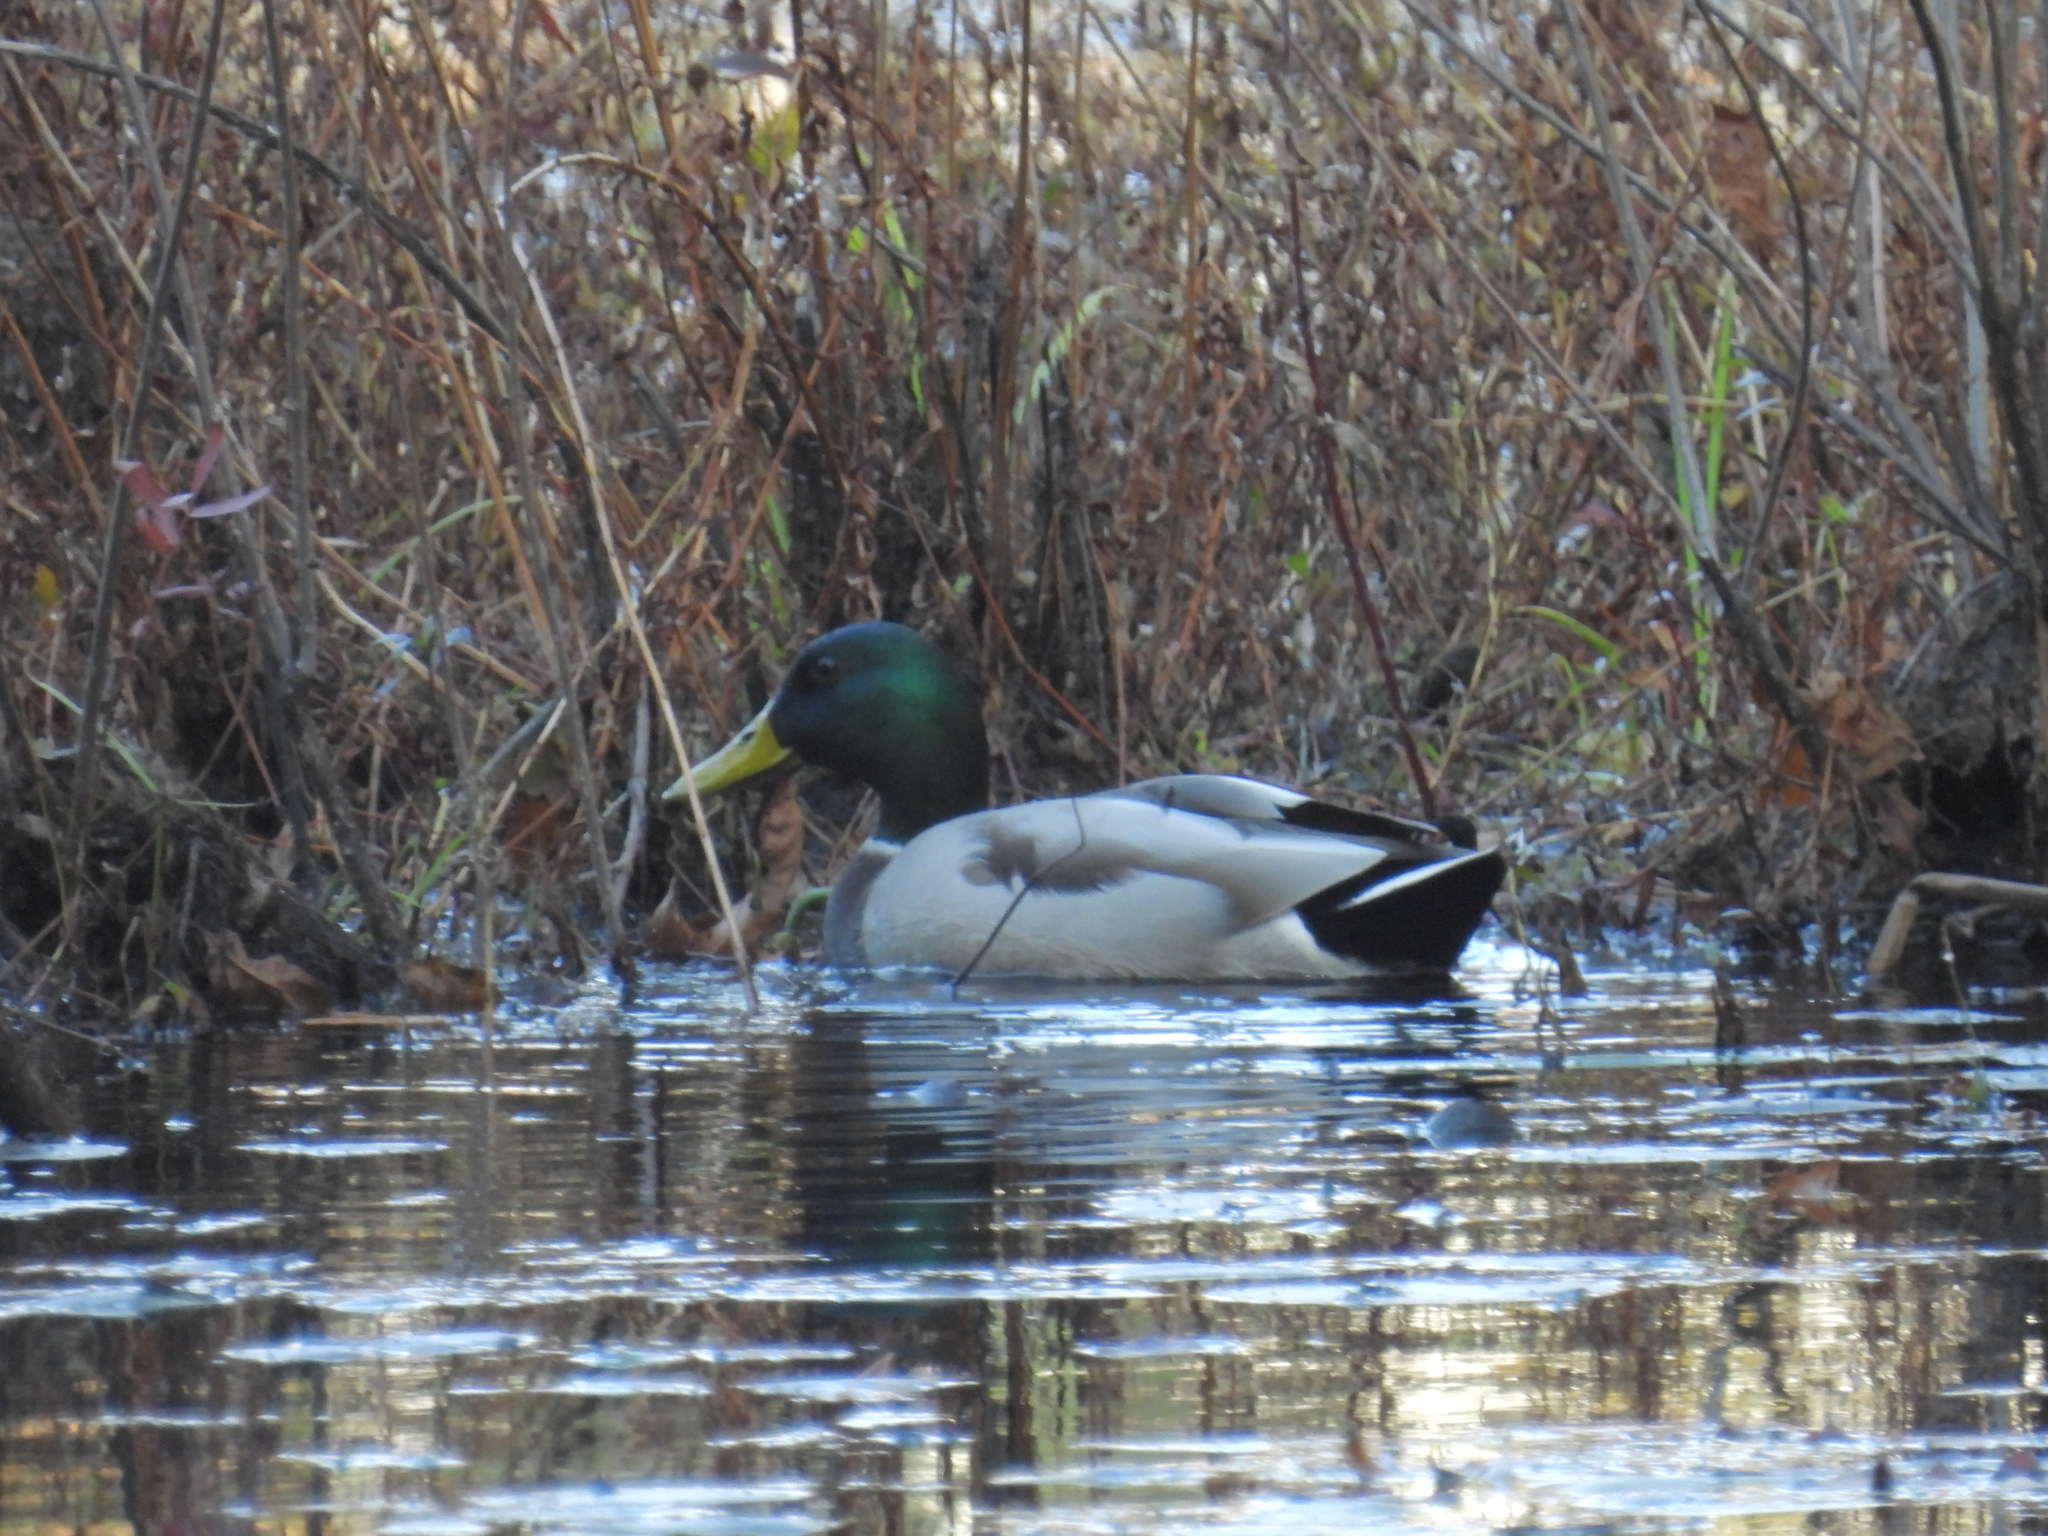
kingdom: Animalia
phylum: Chordata
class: Aves
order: Anseriformes
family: Anatidae
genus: Anas
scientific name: Anas platyrhynchos
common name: Mallard
